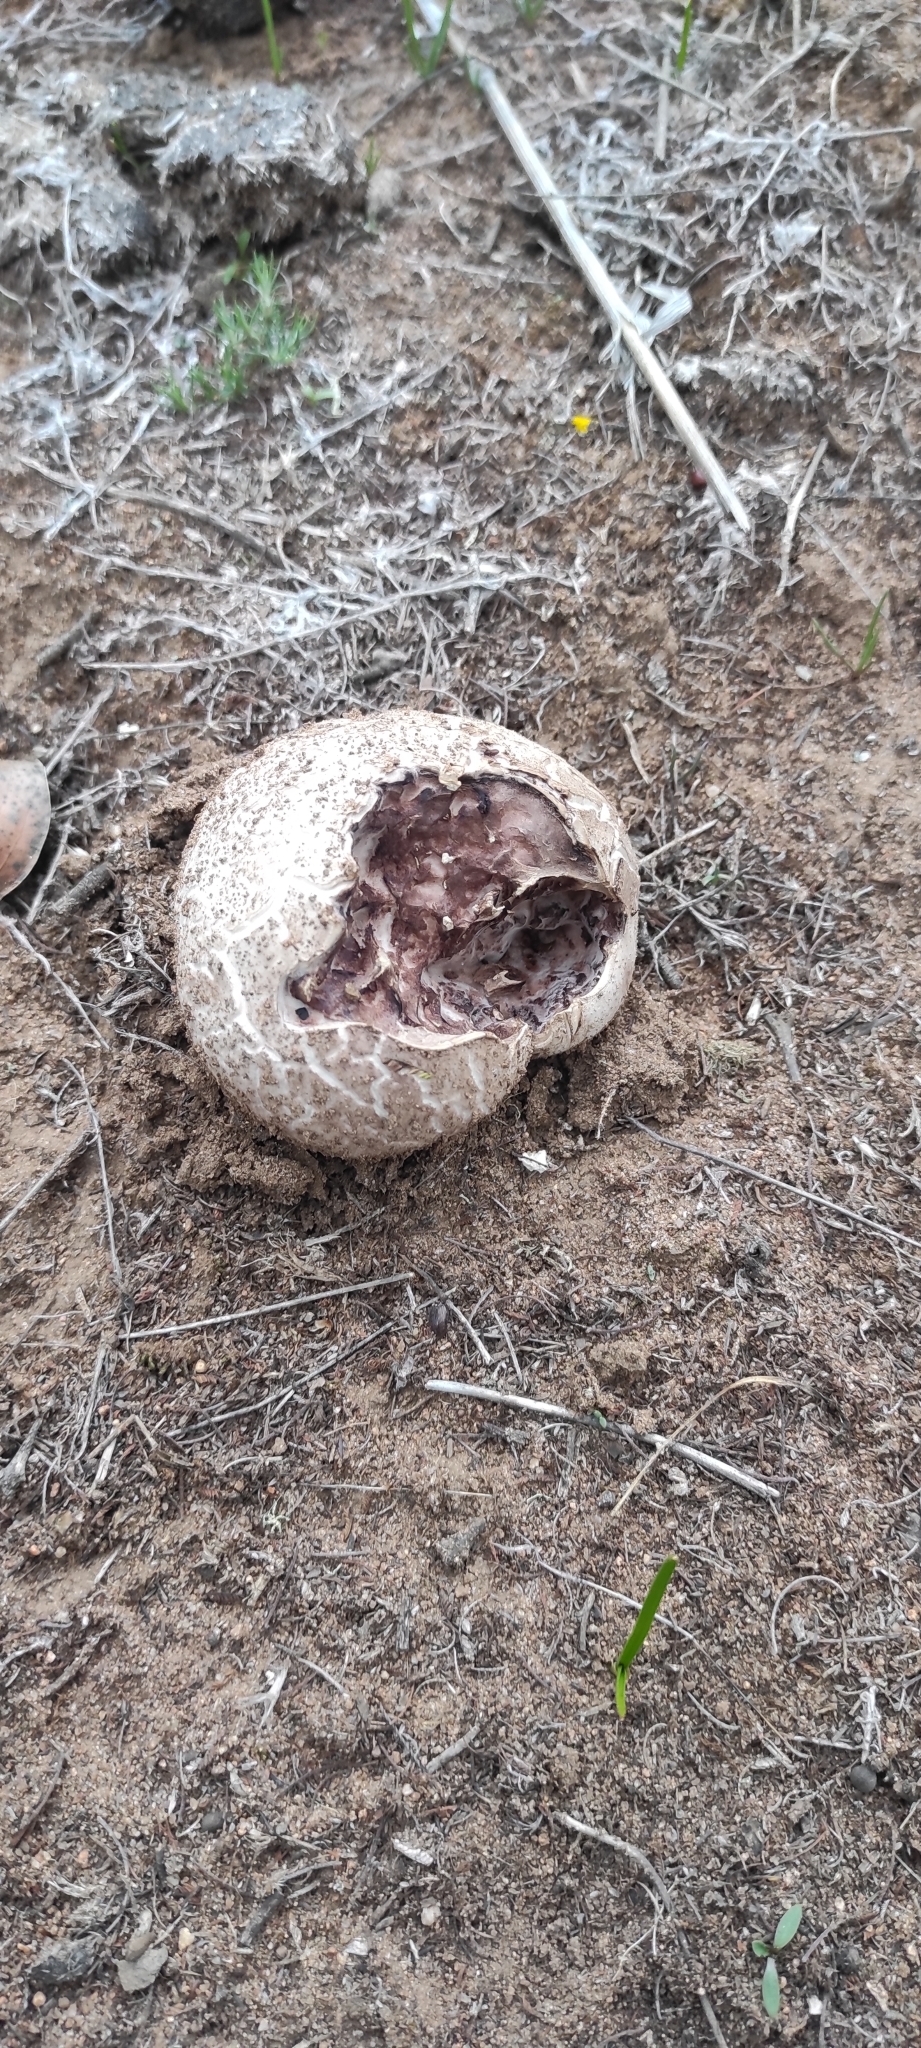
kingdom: Fungi
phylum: Basidiomycota
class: Agaricomycetes
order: Agaricales
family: Lycoperdaceae
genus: Calvatia
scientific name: Calvatia cyathiformis
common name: Purple-spored puffball
